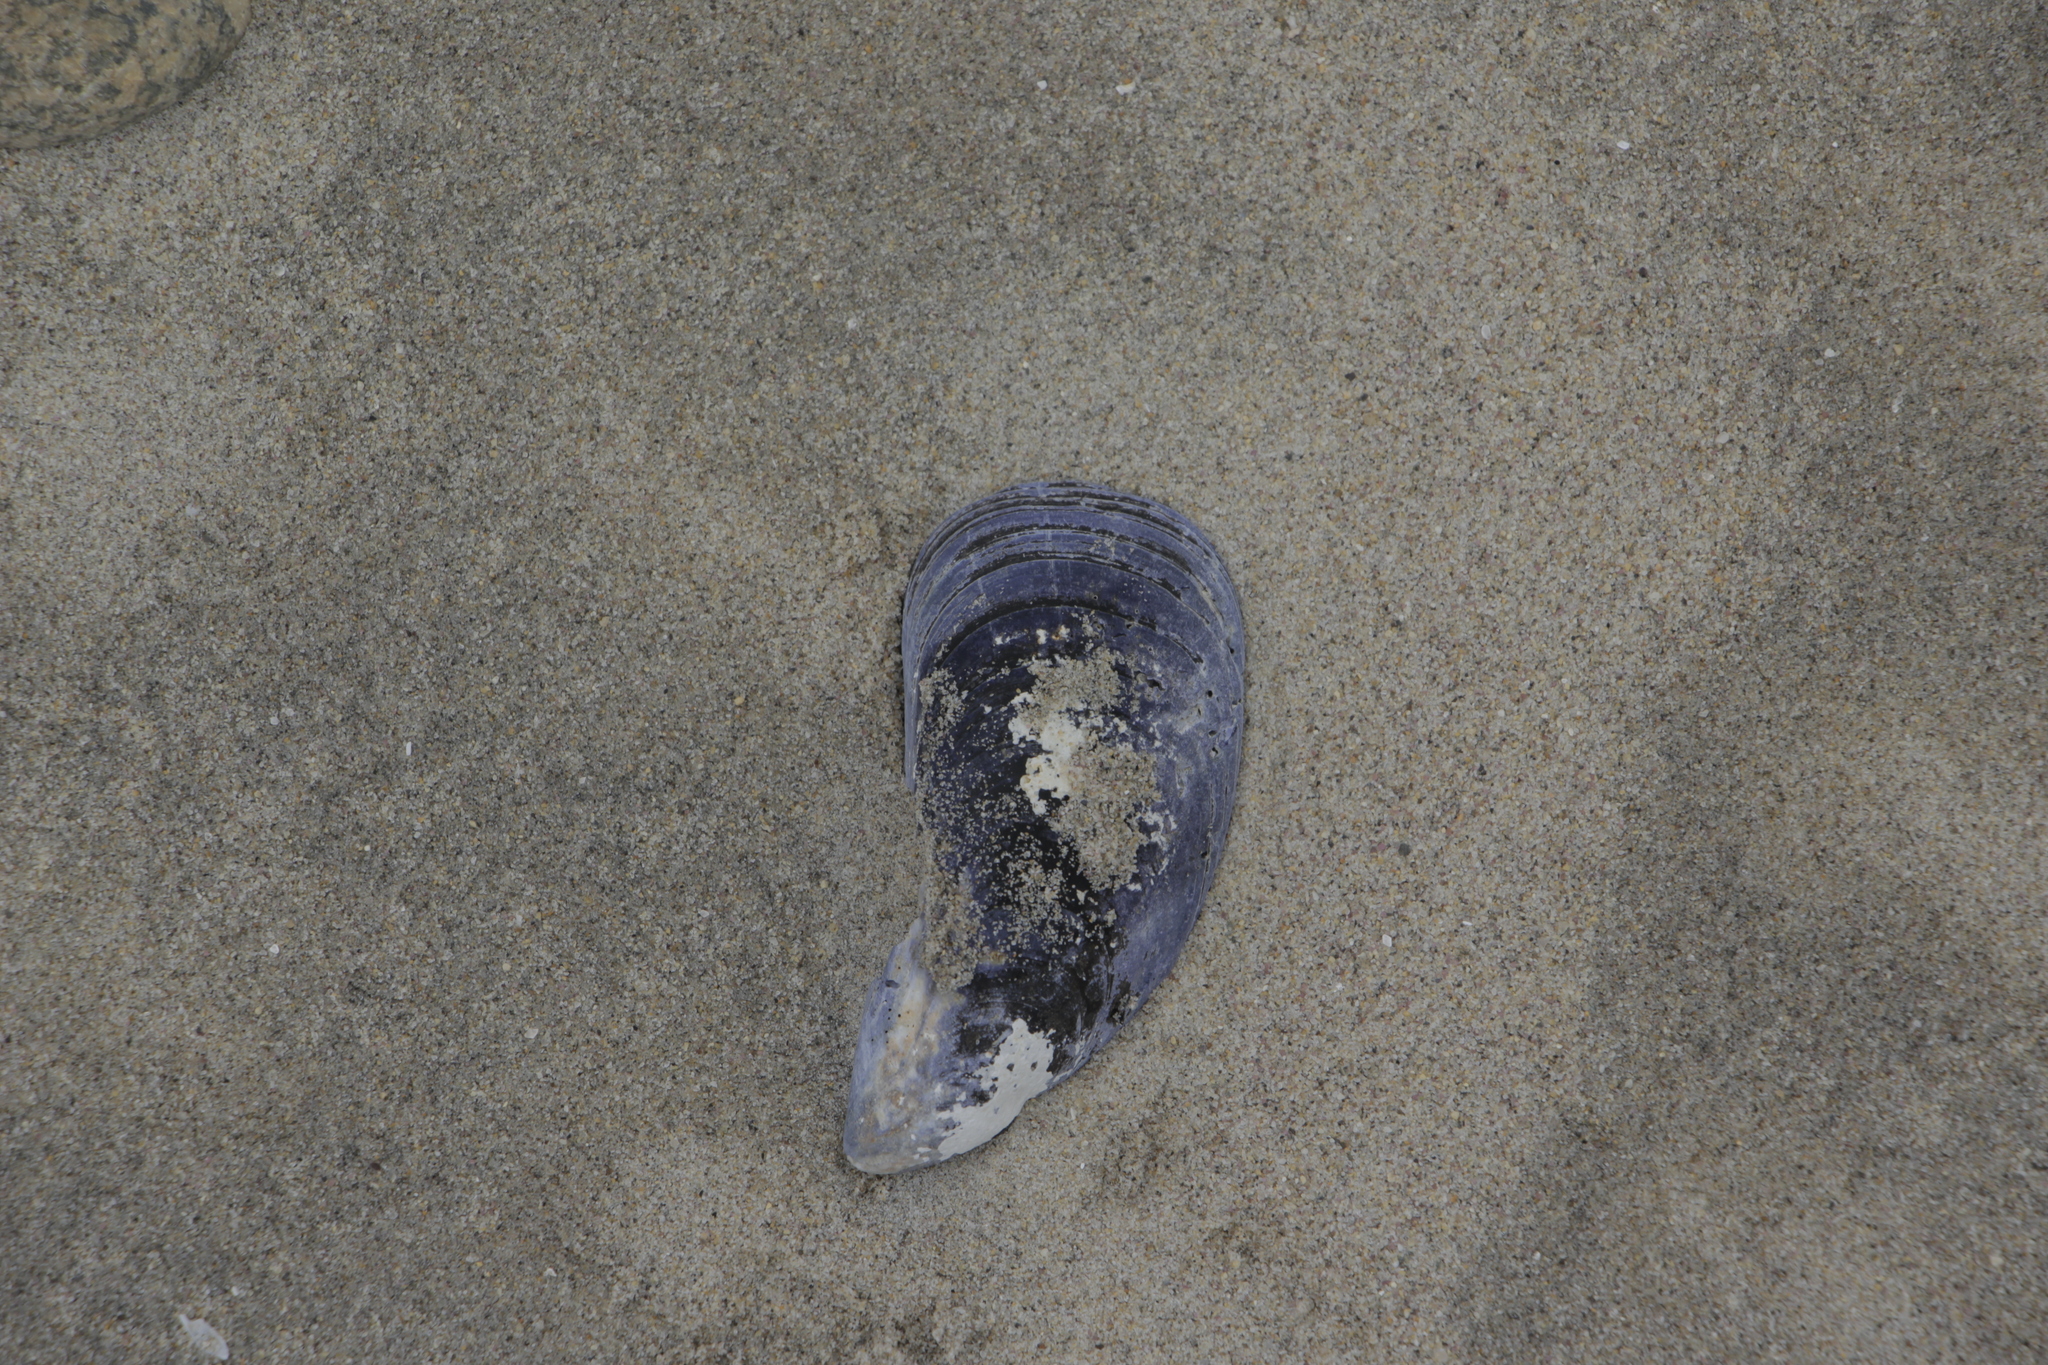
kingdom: Animalia
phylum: Mollusca
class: Bivalvia
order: Mytilida
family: Mytilidae
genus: Mytilus
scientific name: Mytilus edulis
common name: Blue mussel
